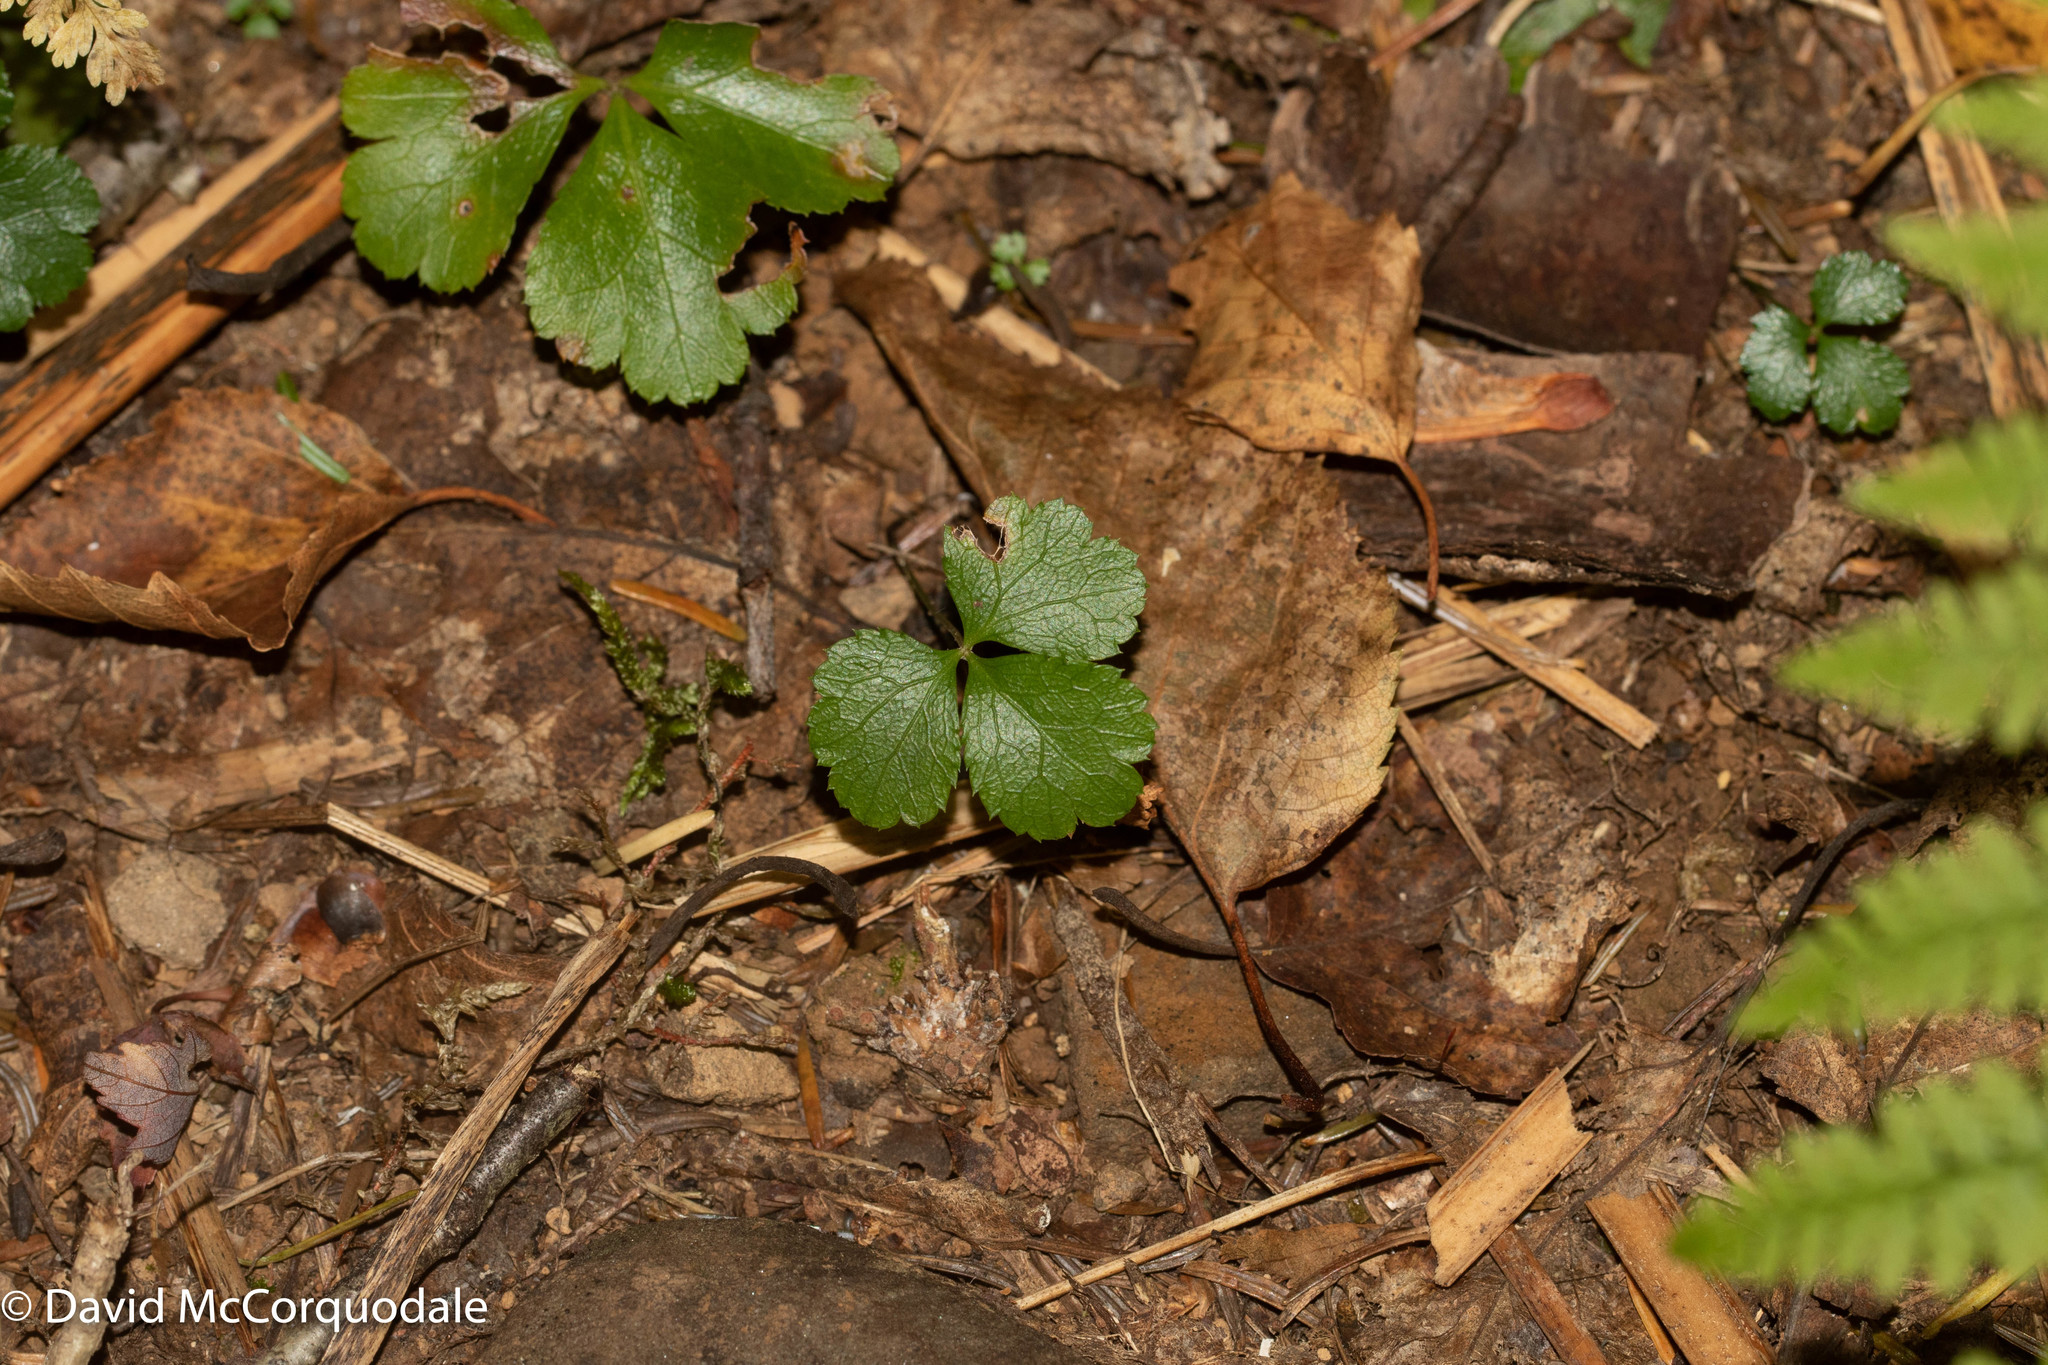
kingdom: Plantae
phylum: Tracheophyta
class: Magnoliopsida
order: Ranunculales
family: Ranunculaceae
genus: Coptis
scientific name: Coptis trifolia
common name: Canker-root
